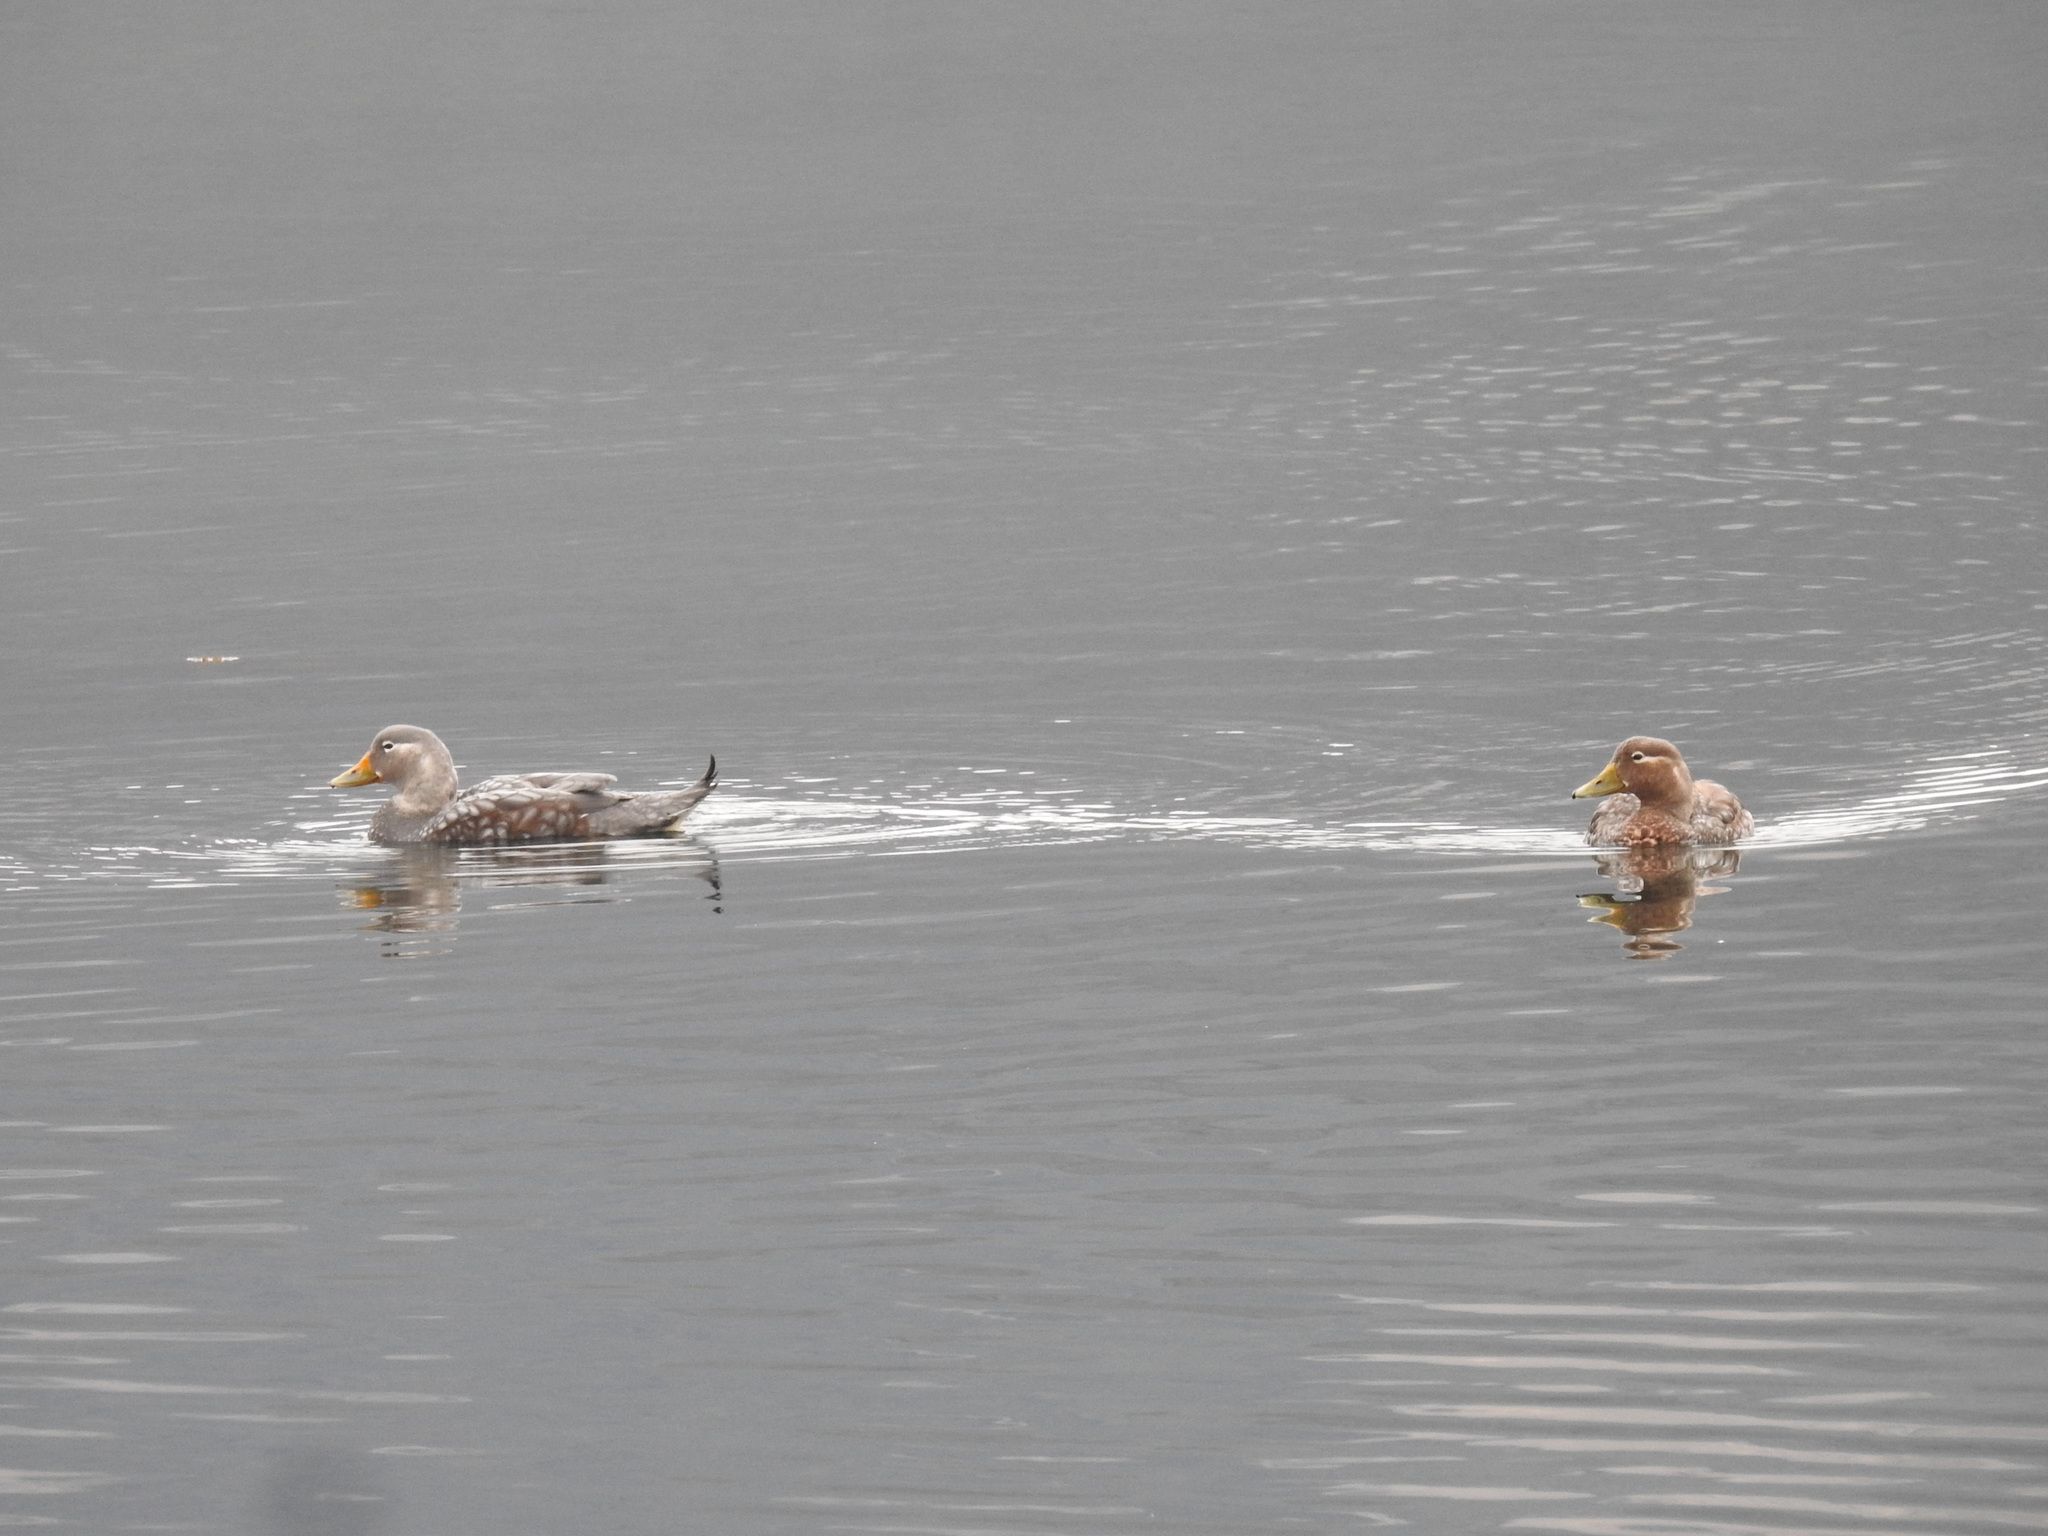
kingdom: Animalia
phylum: Chordata
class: Aves
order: Anseriformes
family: Anatidae
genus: Tachyeres
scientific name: Tachyeres patachonicus
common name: Flying steamer duck
